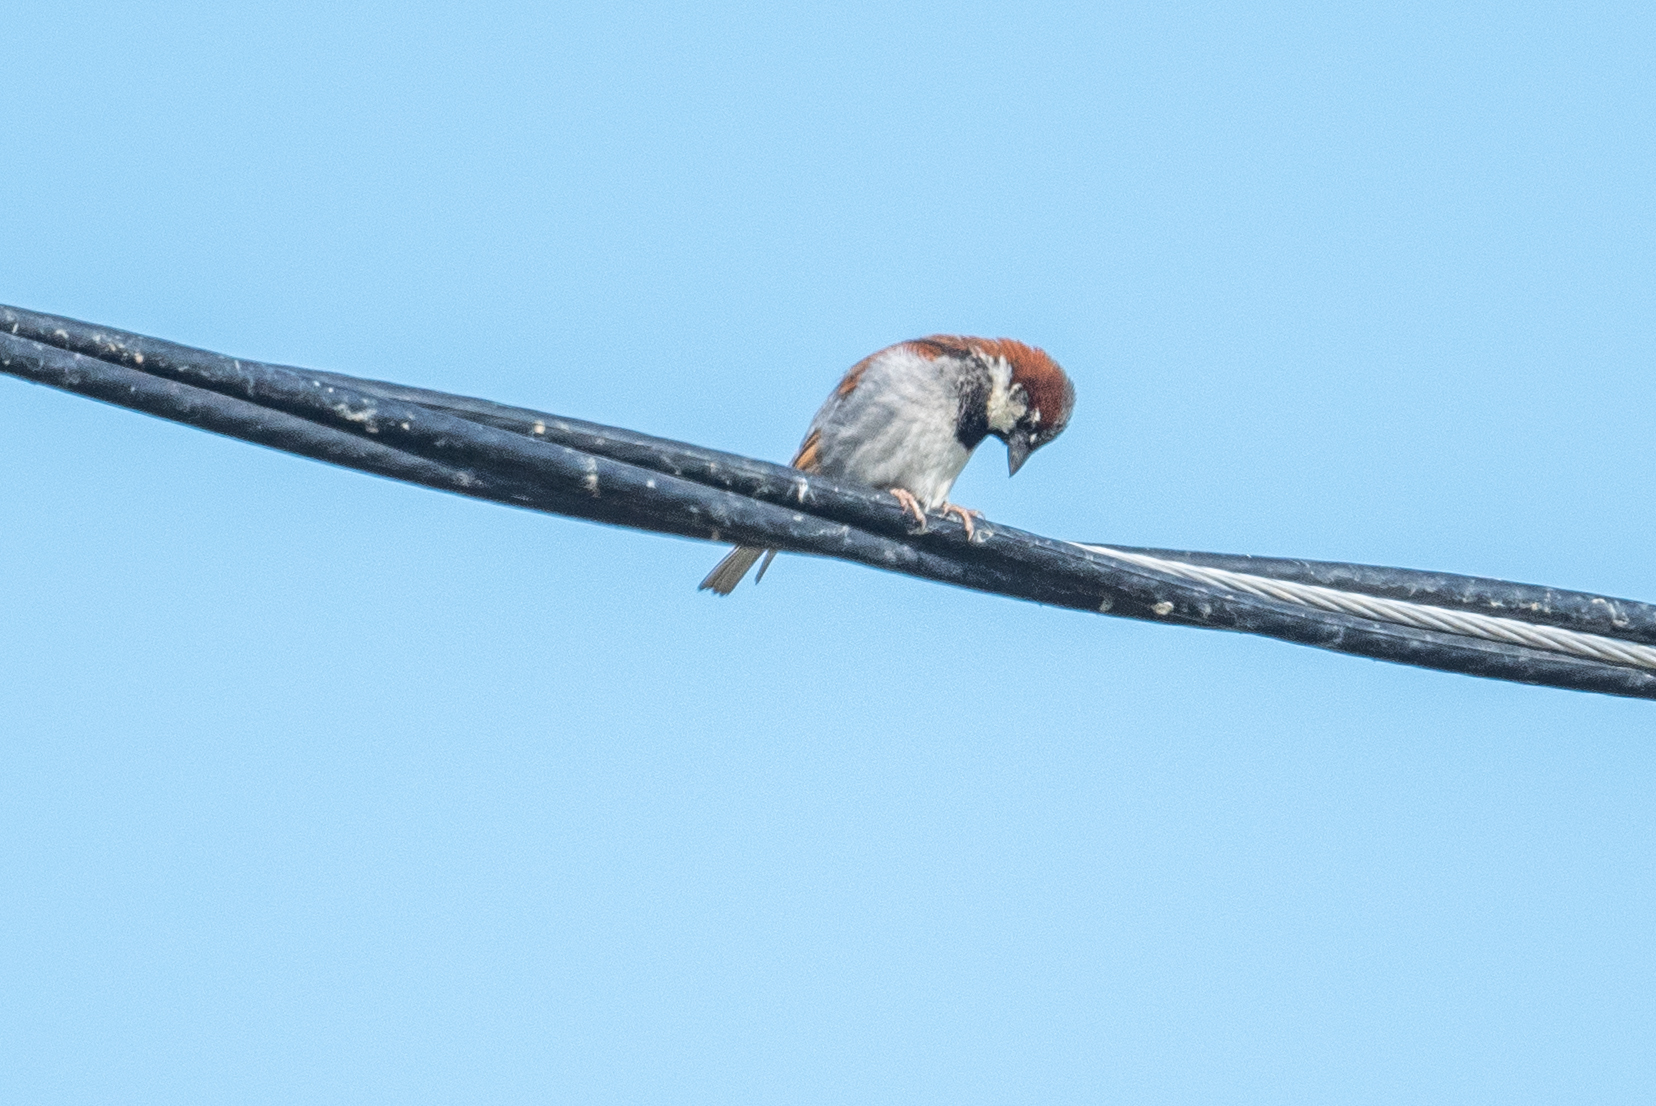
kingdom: Animalia
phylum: Chordata
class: Aves
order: Passeriformes
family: Passeridae
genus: Passer
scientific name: Passer domesticus
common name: House sparrow
